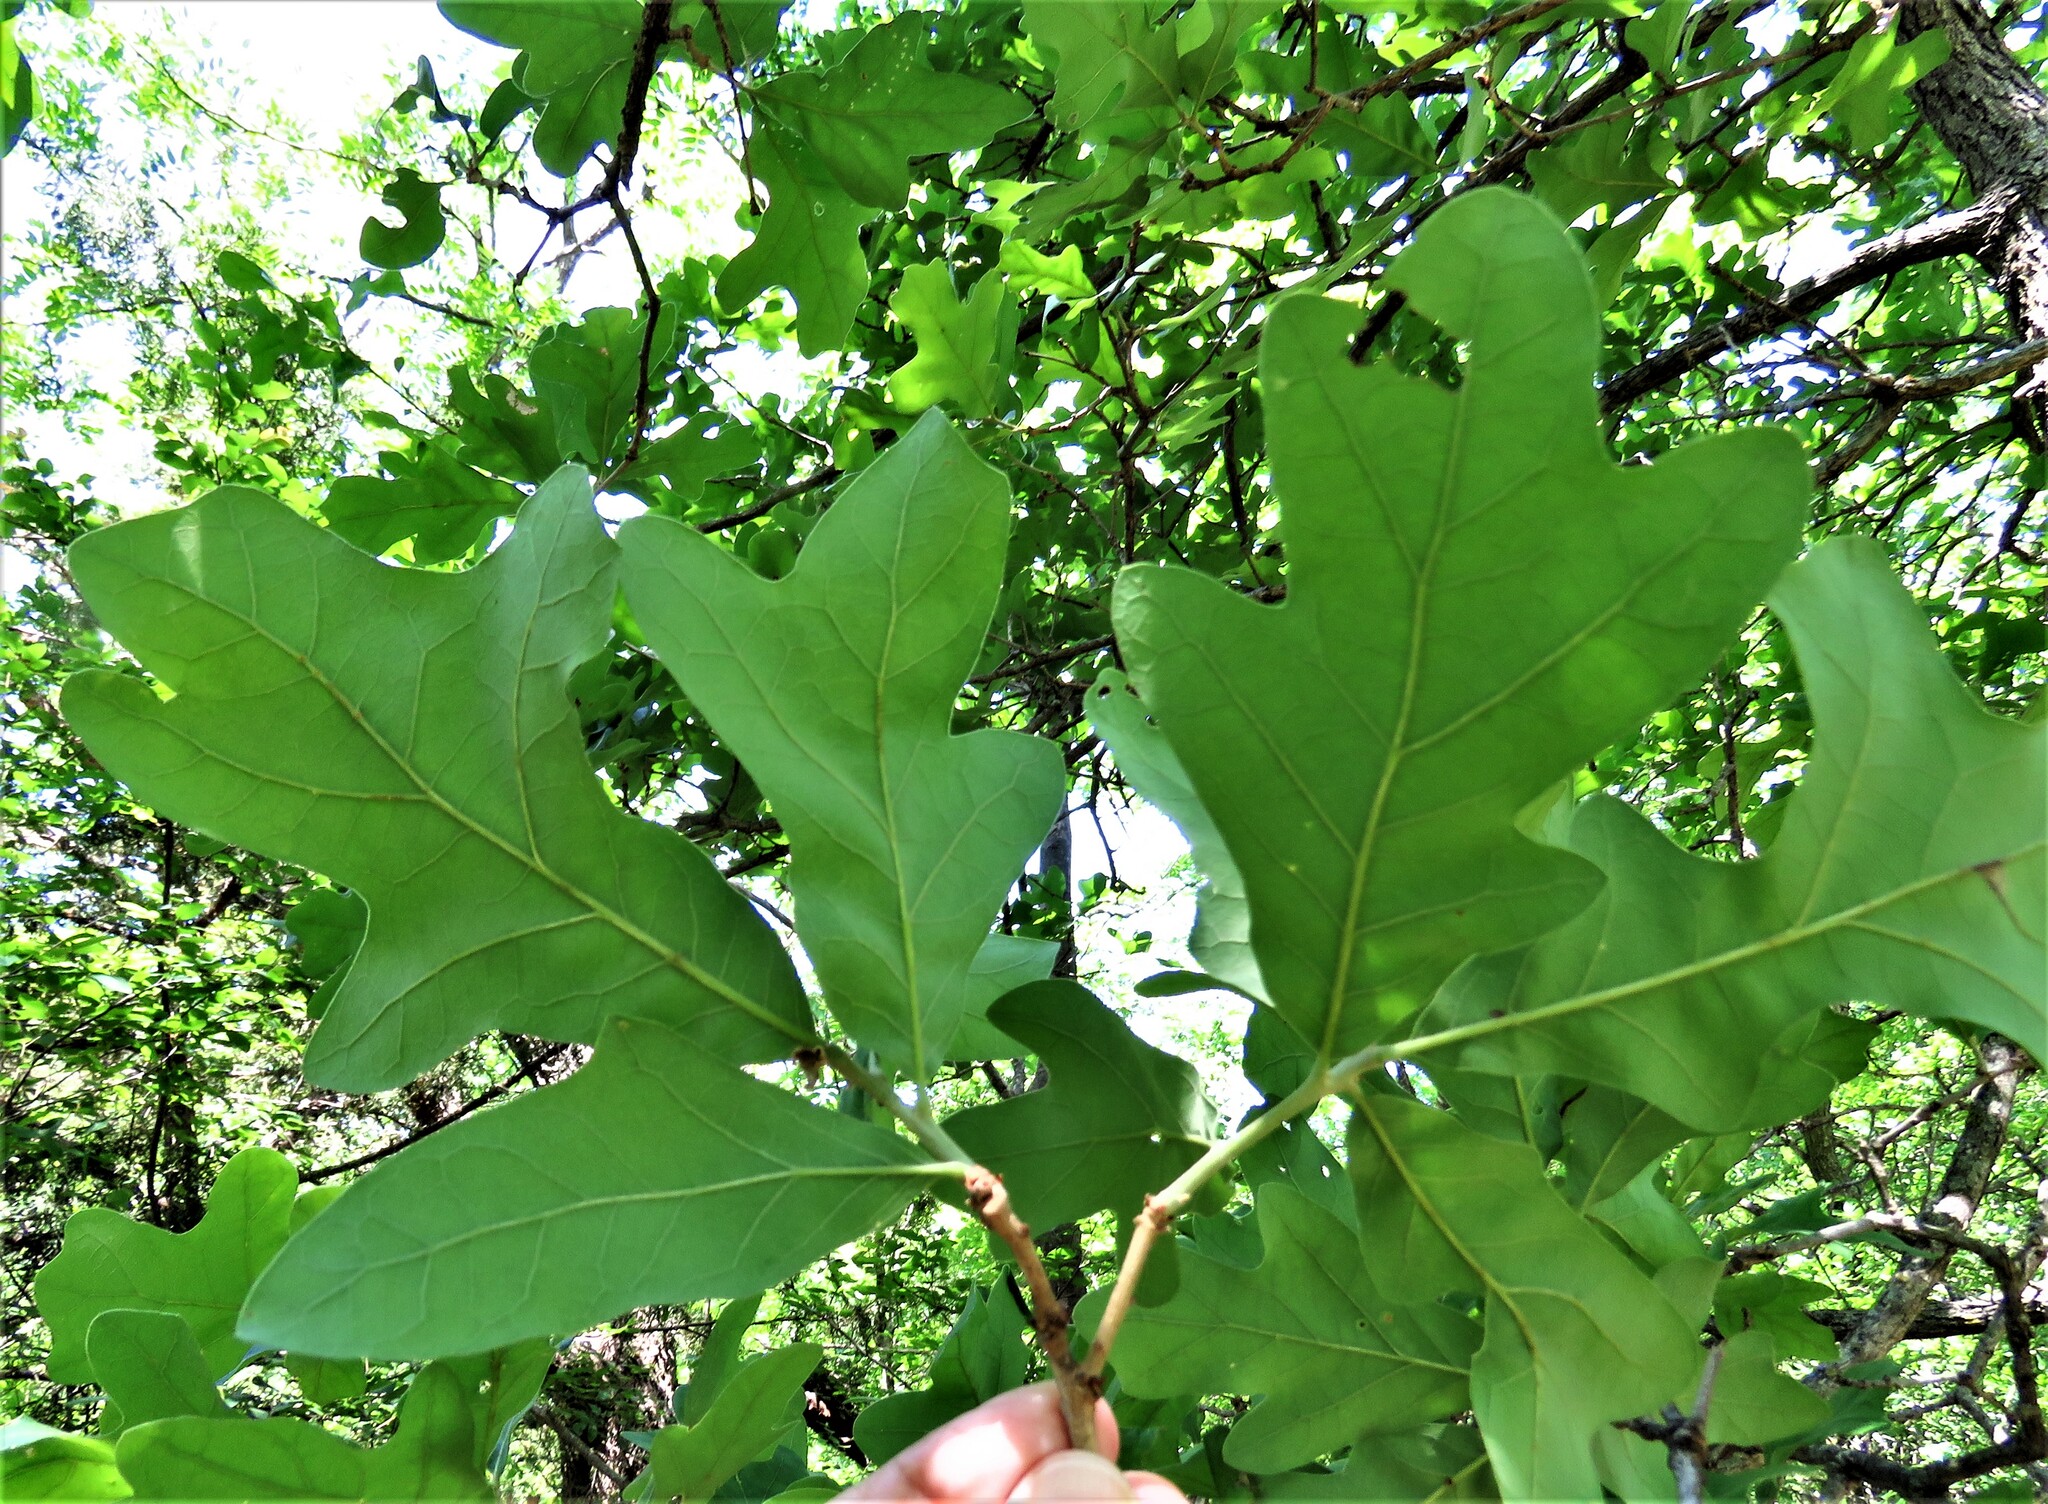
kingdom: Plantae
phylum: Tracheophyta
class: Magnoliopsida
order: Fagales
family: Fagaceae
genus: Quercus
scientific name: Quercus stellata
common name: Post oak
